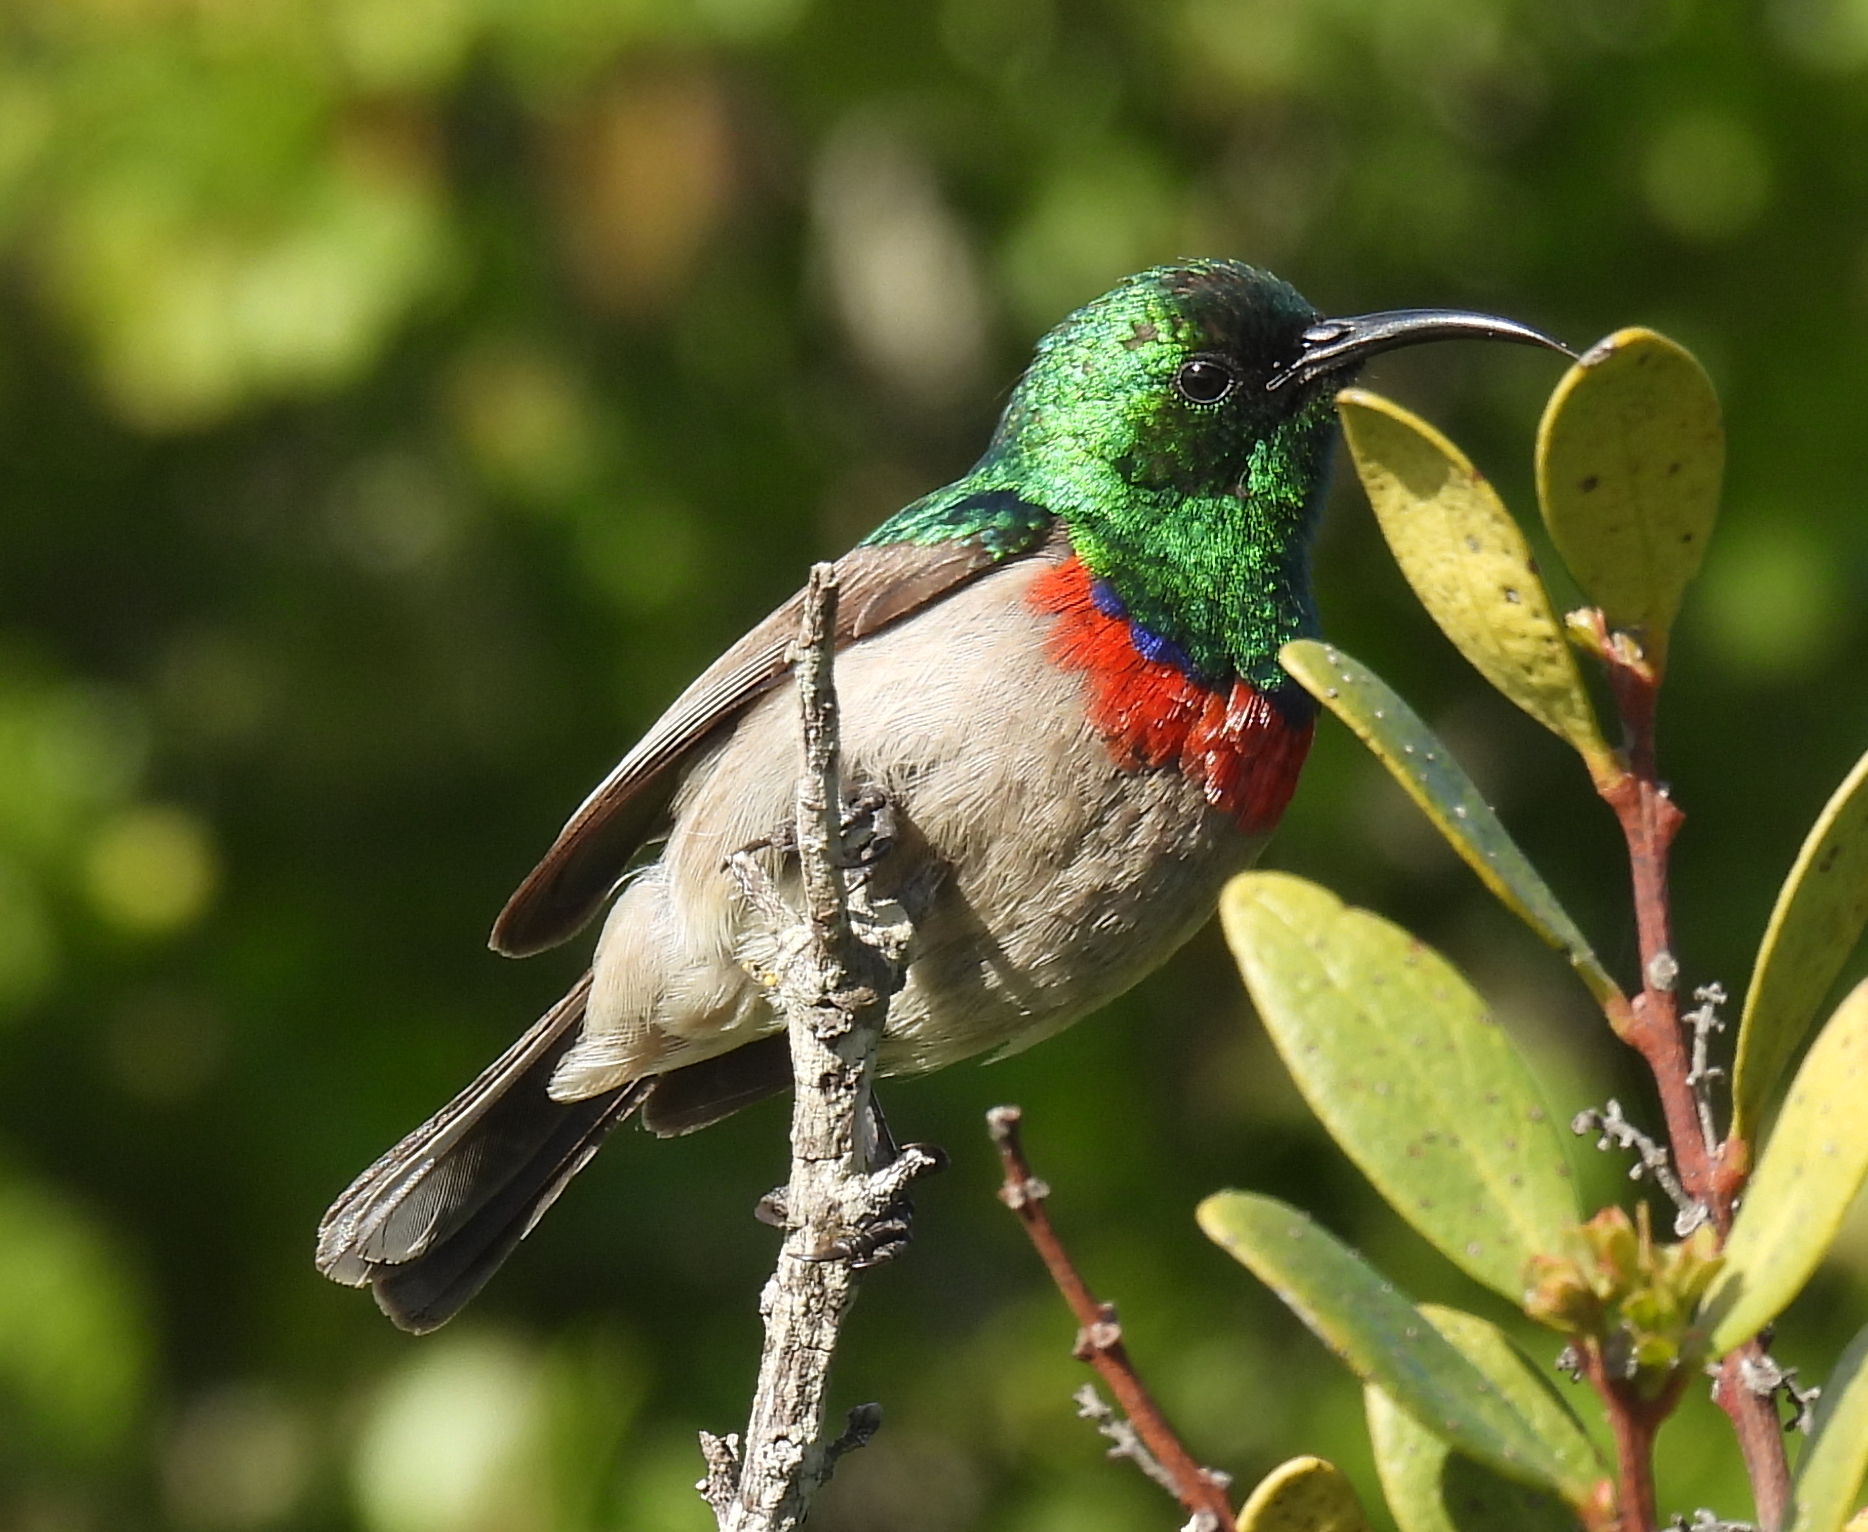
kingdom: Animalia
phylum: Chordata
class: Aves
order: Passeriformes
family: Nectariniidae
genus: Cinnyris
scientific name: Cinnyris chalybeus
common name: Southern double-collared sunbird
